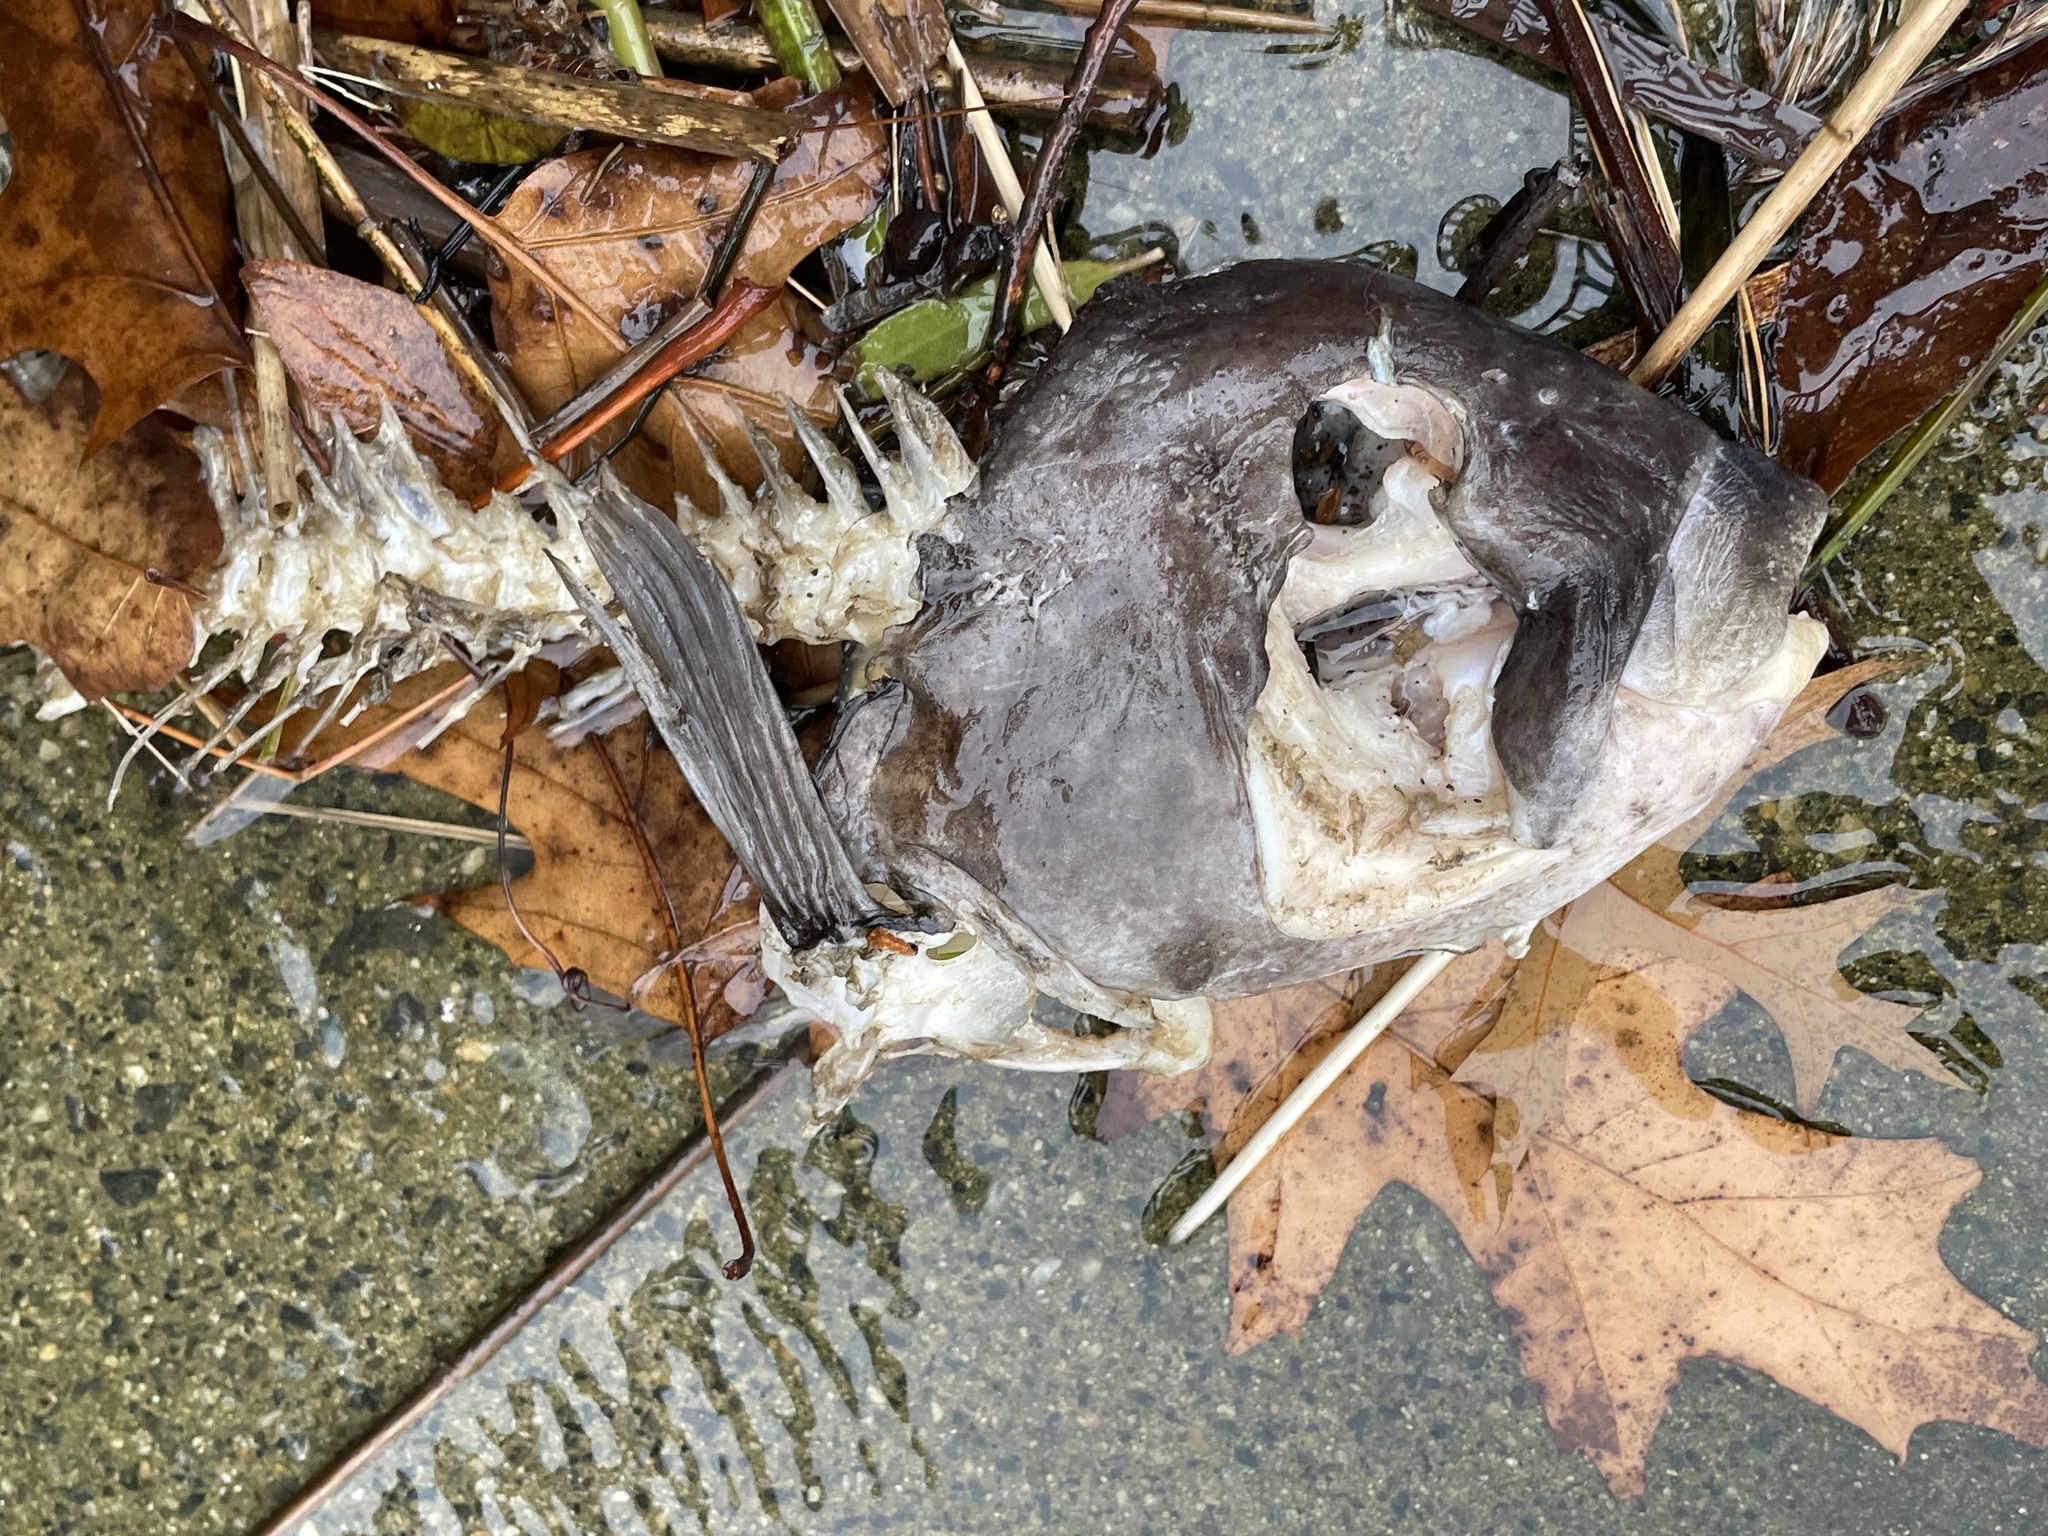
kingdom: Animalia
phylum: Chordata
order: Perciformes
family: Labridae
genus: Tautoga
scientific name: Tautoga onitis
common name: Tautog
